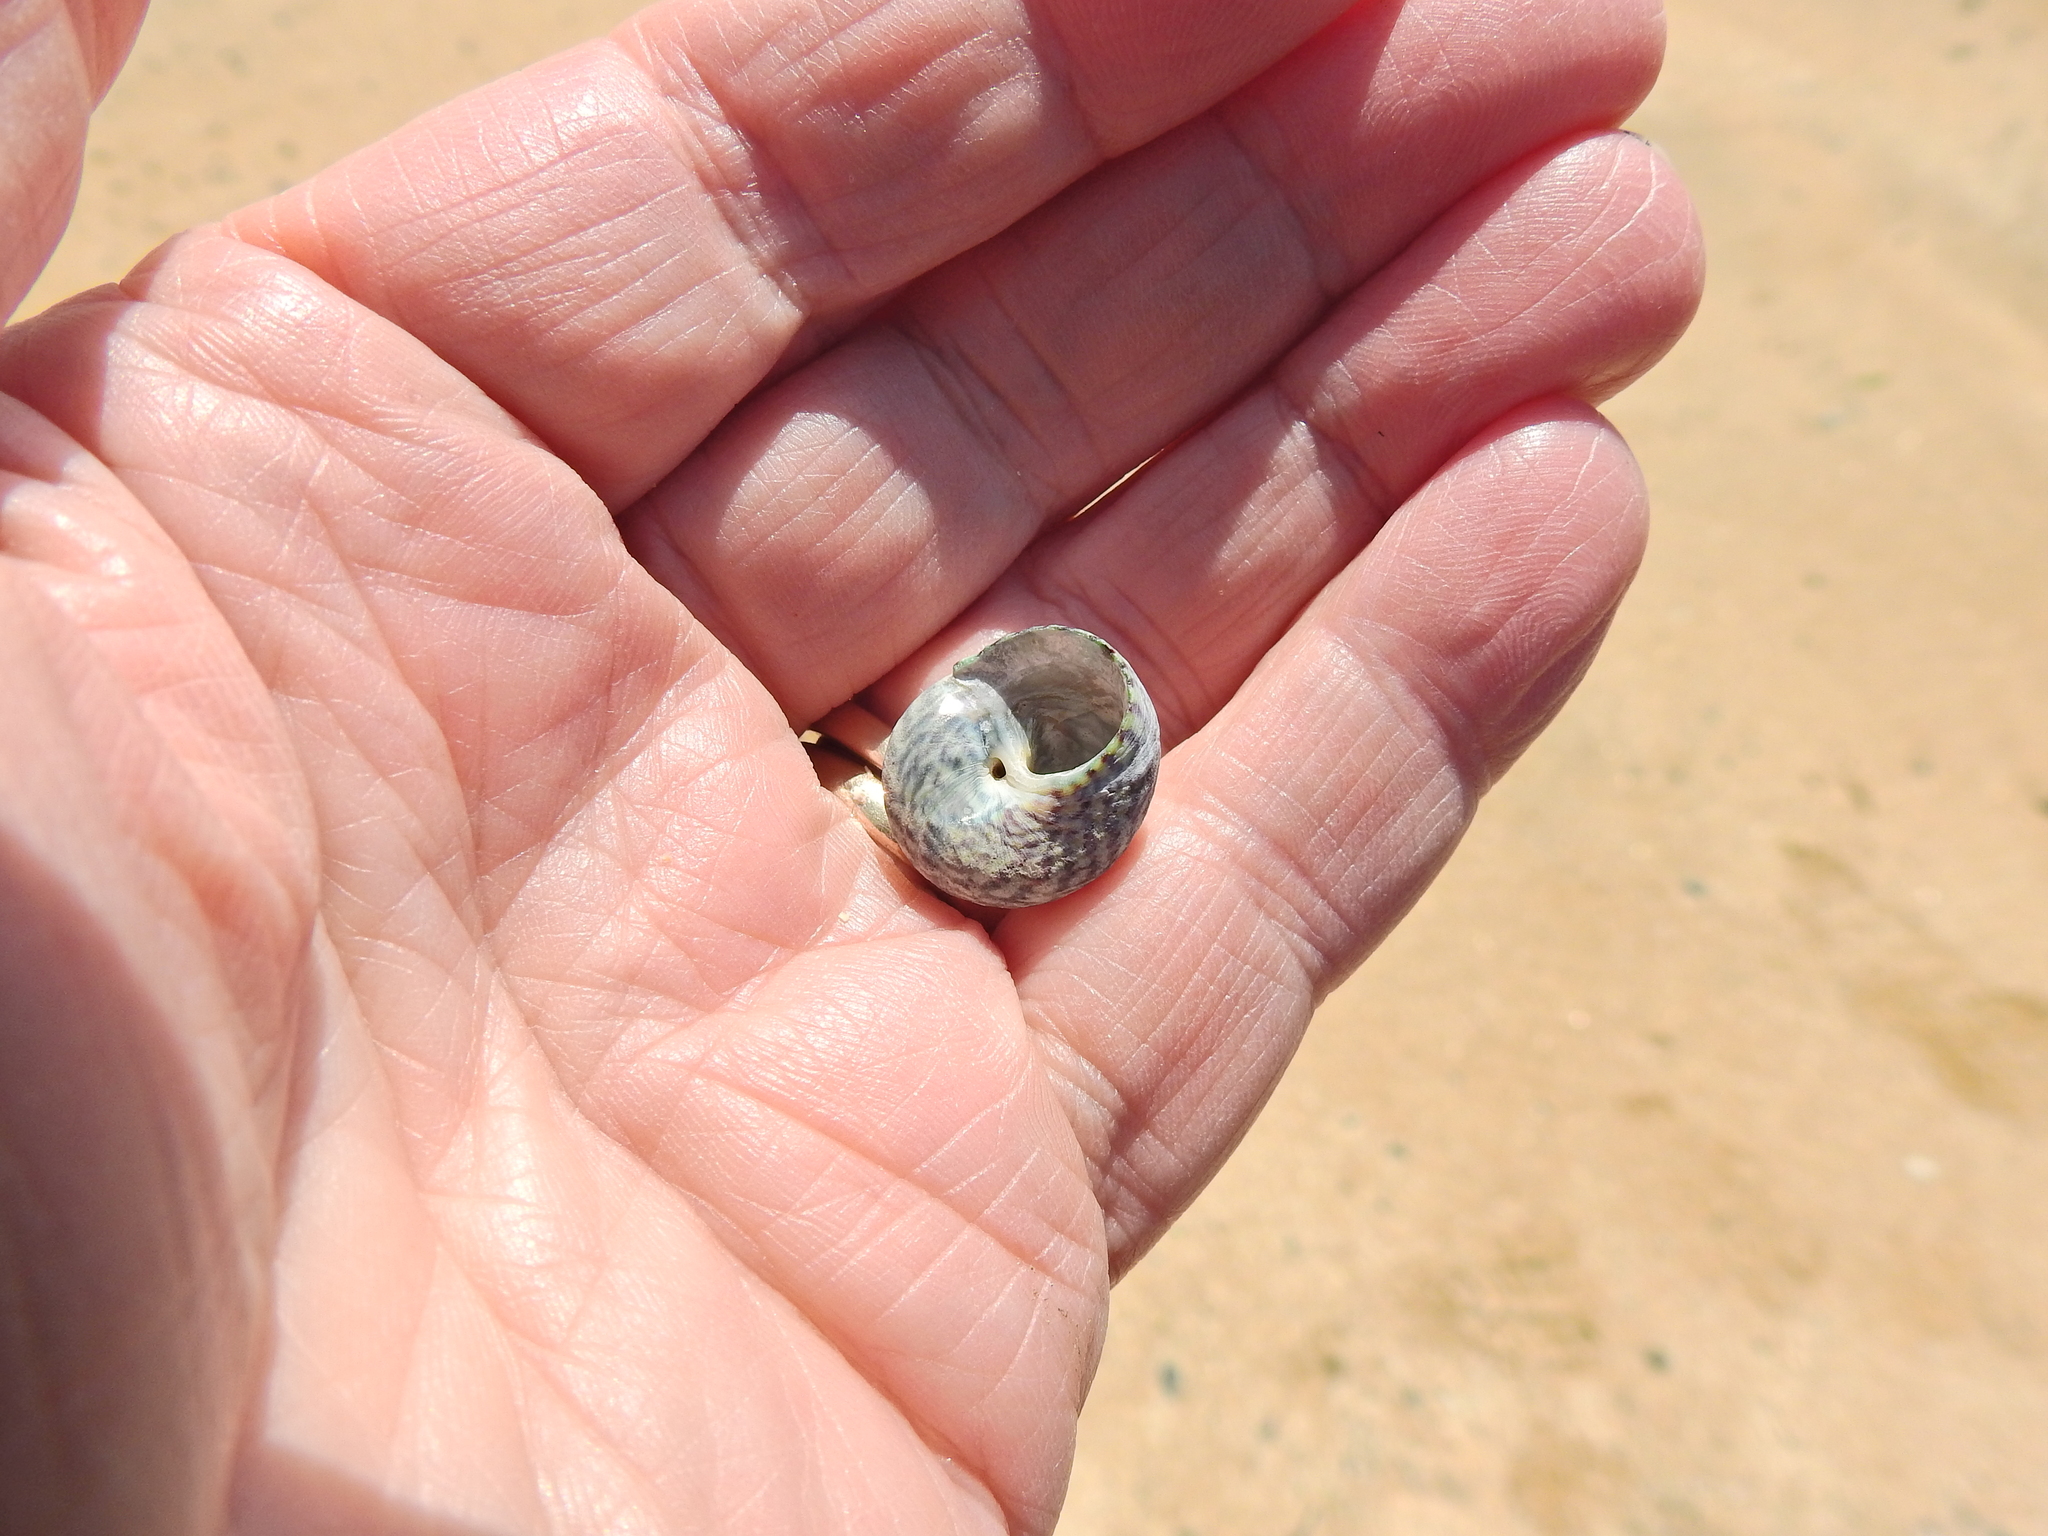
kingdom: Animalia
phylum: Mollusca
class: Gastropoda
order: Trochida
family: Trochidae
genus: Steromphala
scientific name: Steromphala umbilicalis
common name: Flat top shell
